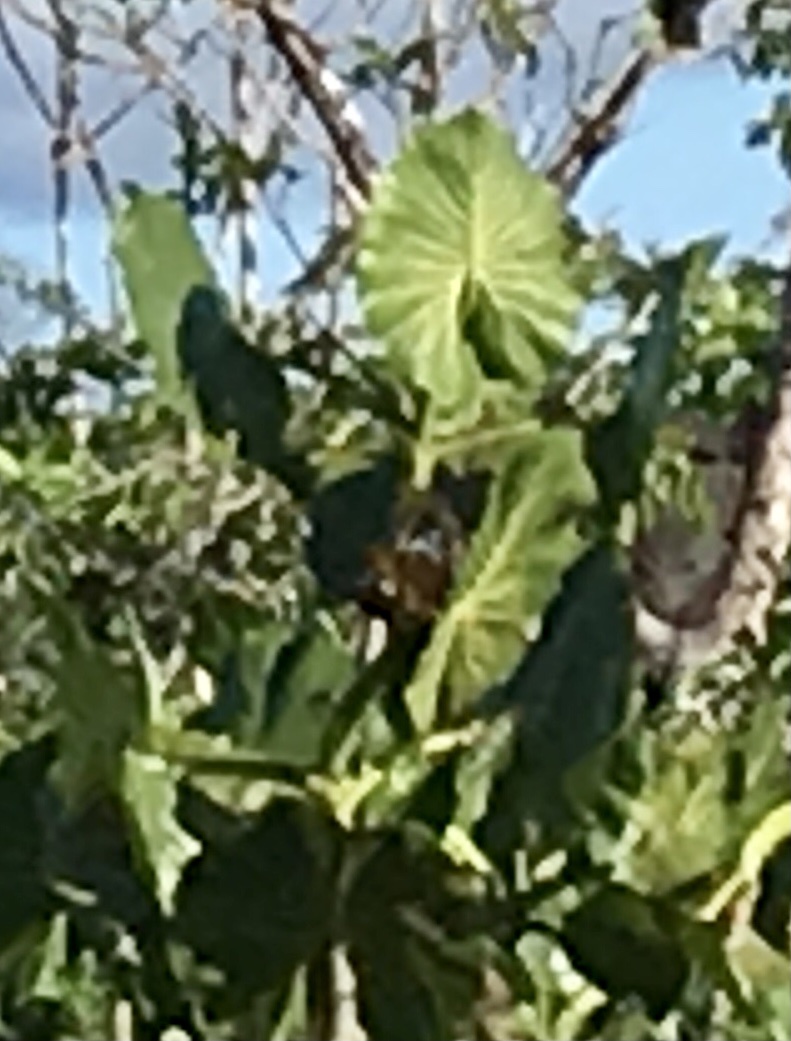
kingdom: Plantae
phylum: Tracheophyta
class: Liliopsida
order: Alismatales
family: Araceae
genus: Montrichardia
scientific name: Montrichardia linifera
